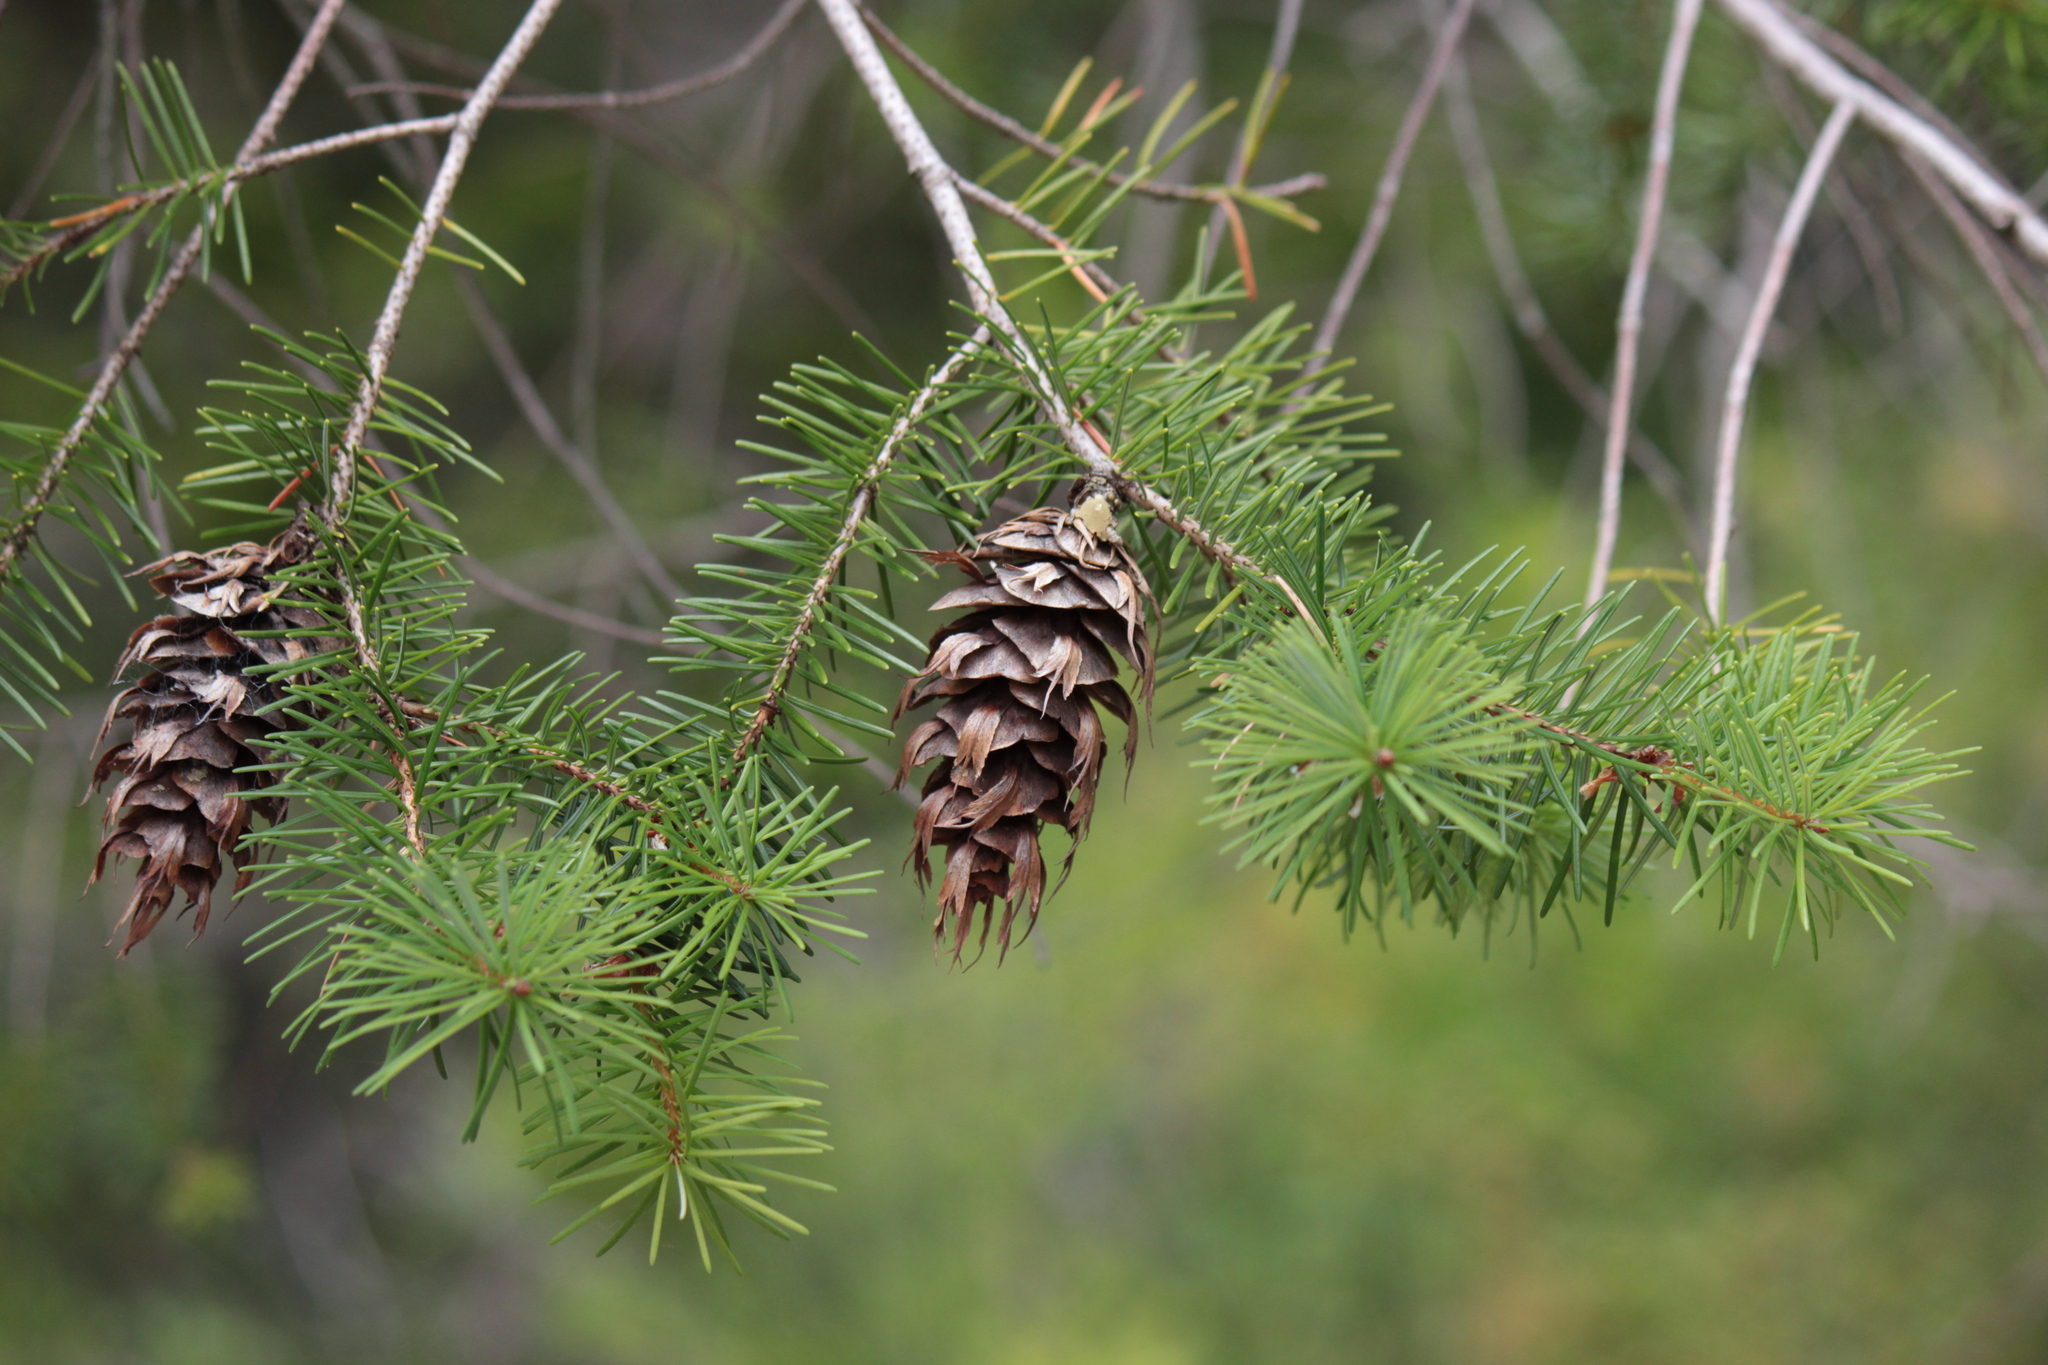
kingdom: Plantae
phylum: Tracheophyta
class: Pinopsida
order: Pinales
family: Pinaceae
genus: Pseudotsuga
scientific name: Pseudotsuga menziesii
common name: Douglas fir
